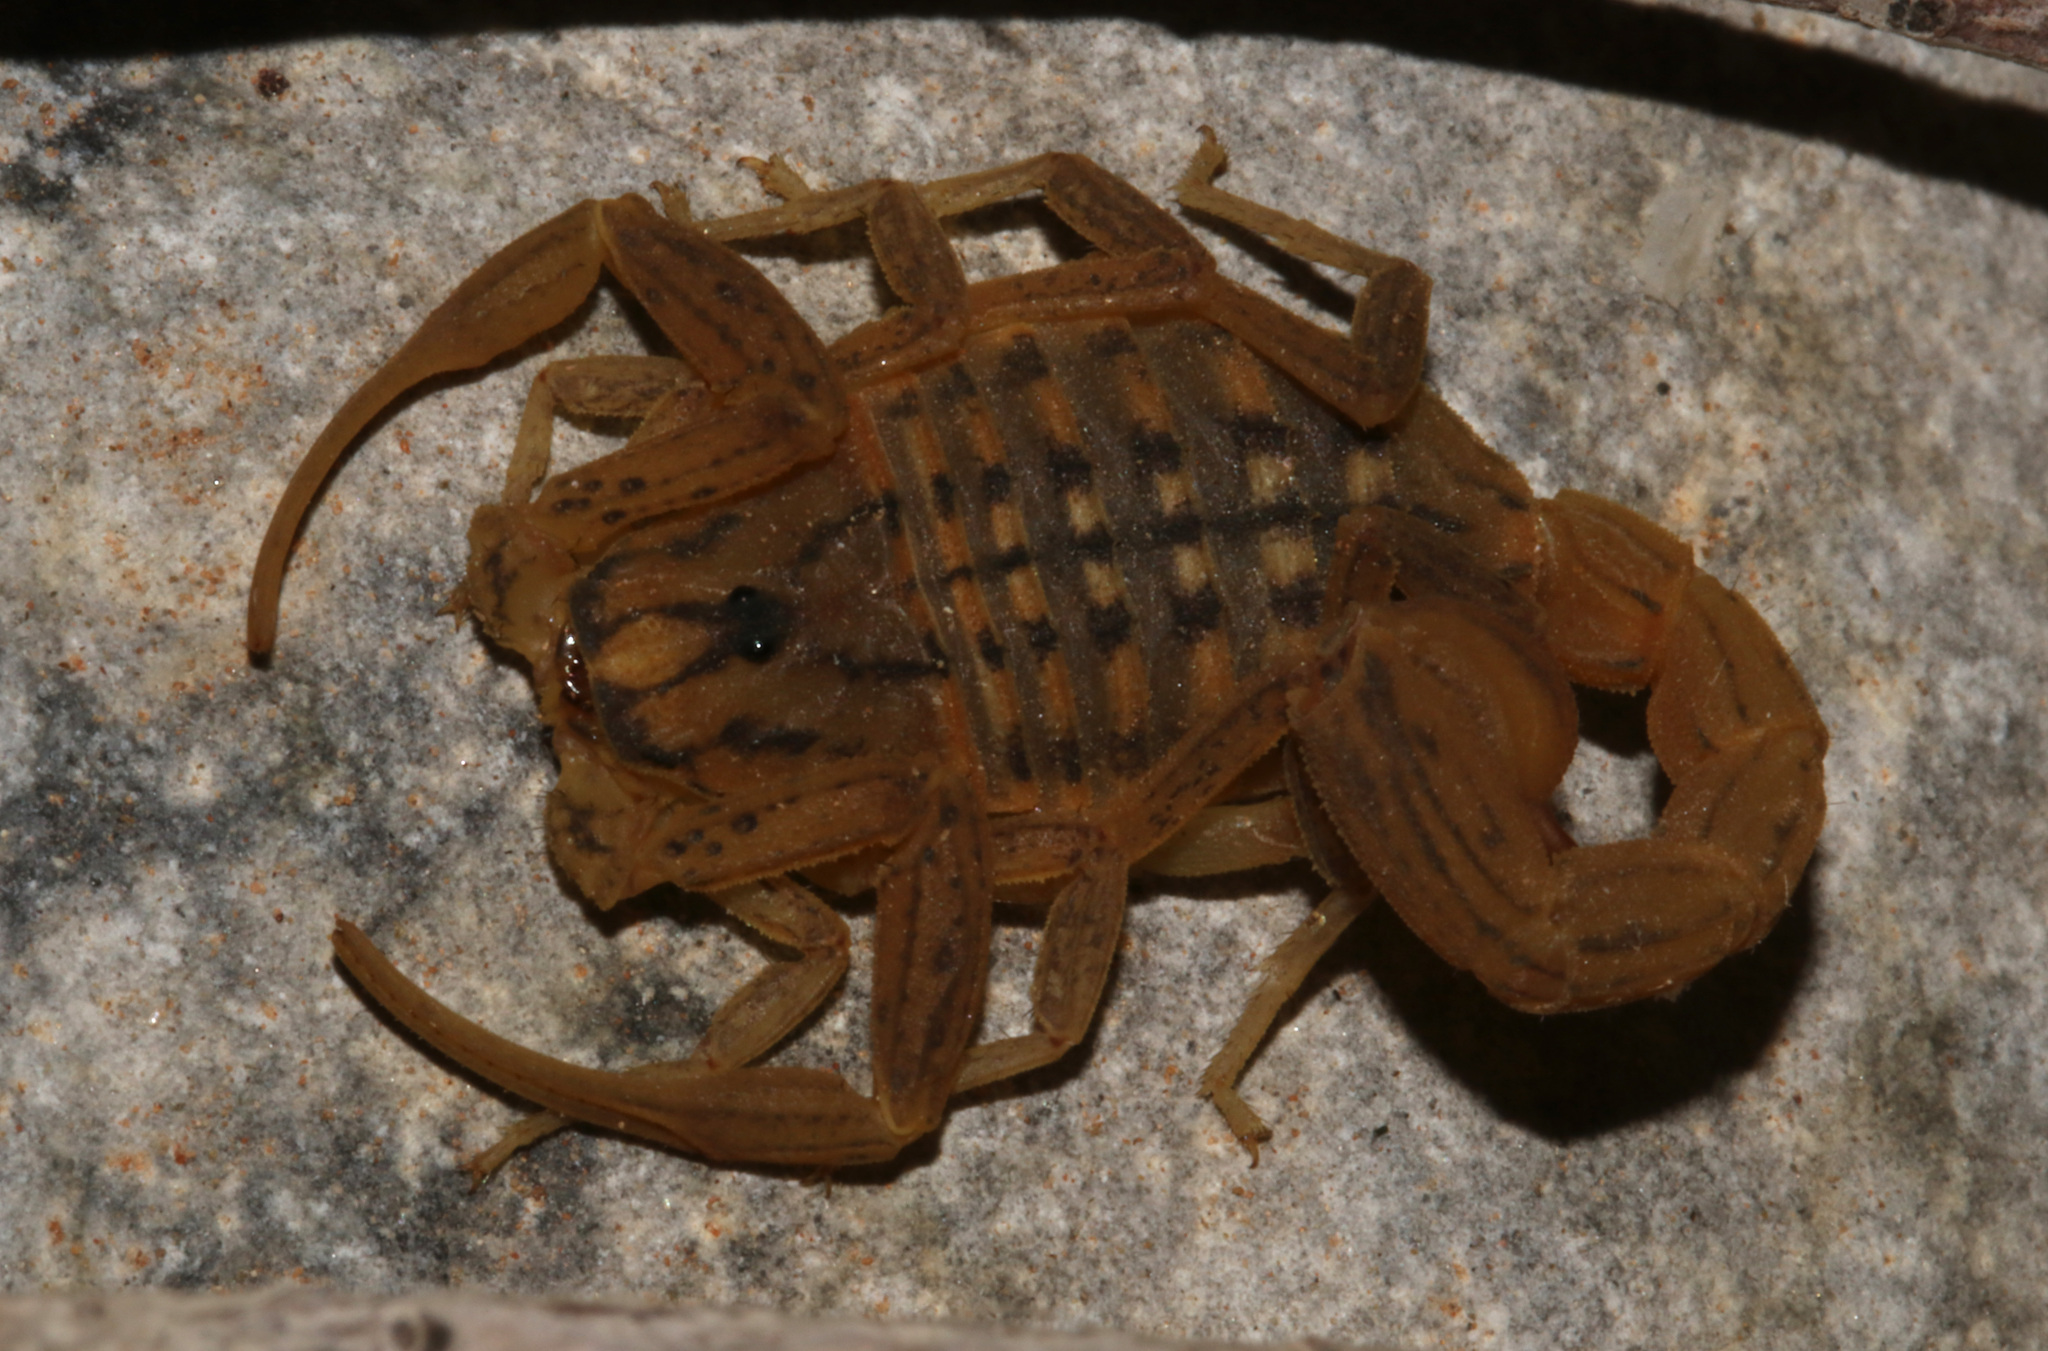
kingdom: Animalia
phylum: Arthropoda
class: Arachnida
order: Scorpiones
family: Buthidae
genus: Hottentotta
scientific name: Hottentotta conspersus
